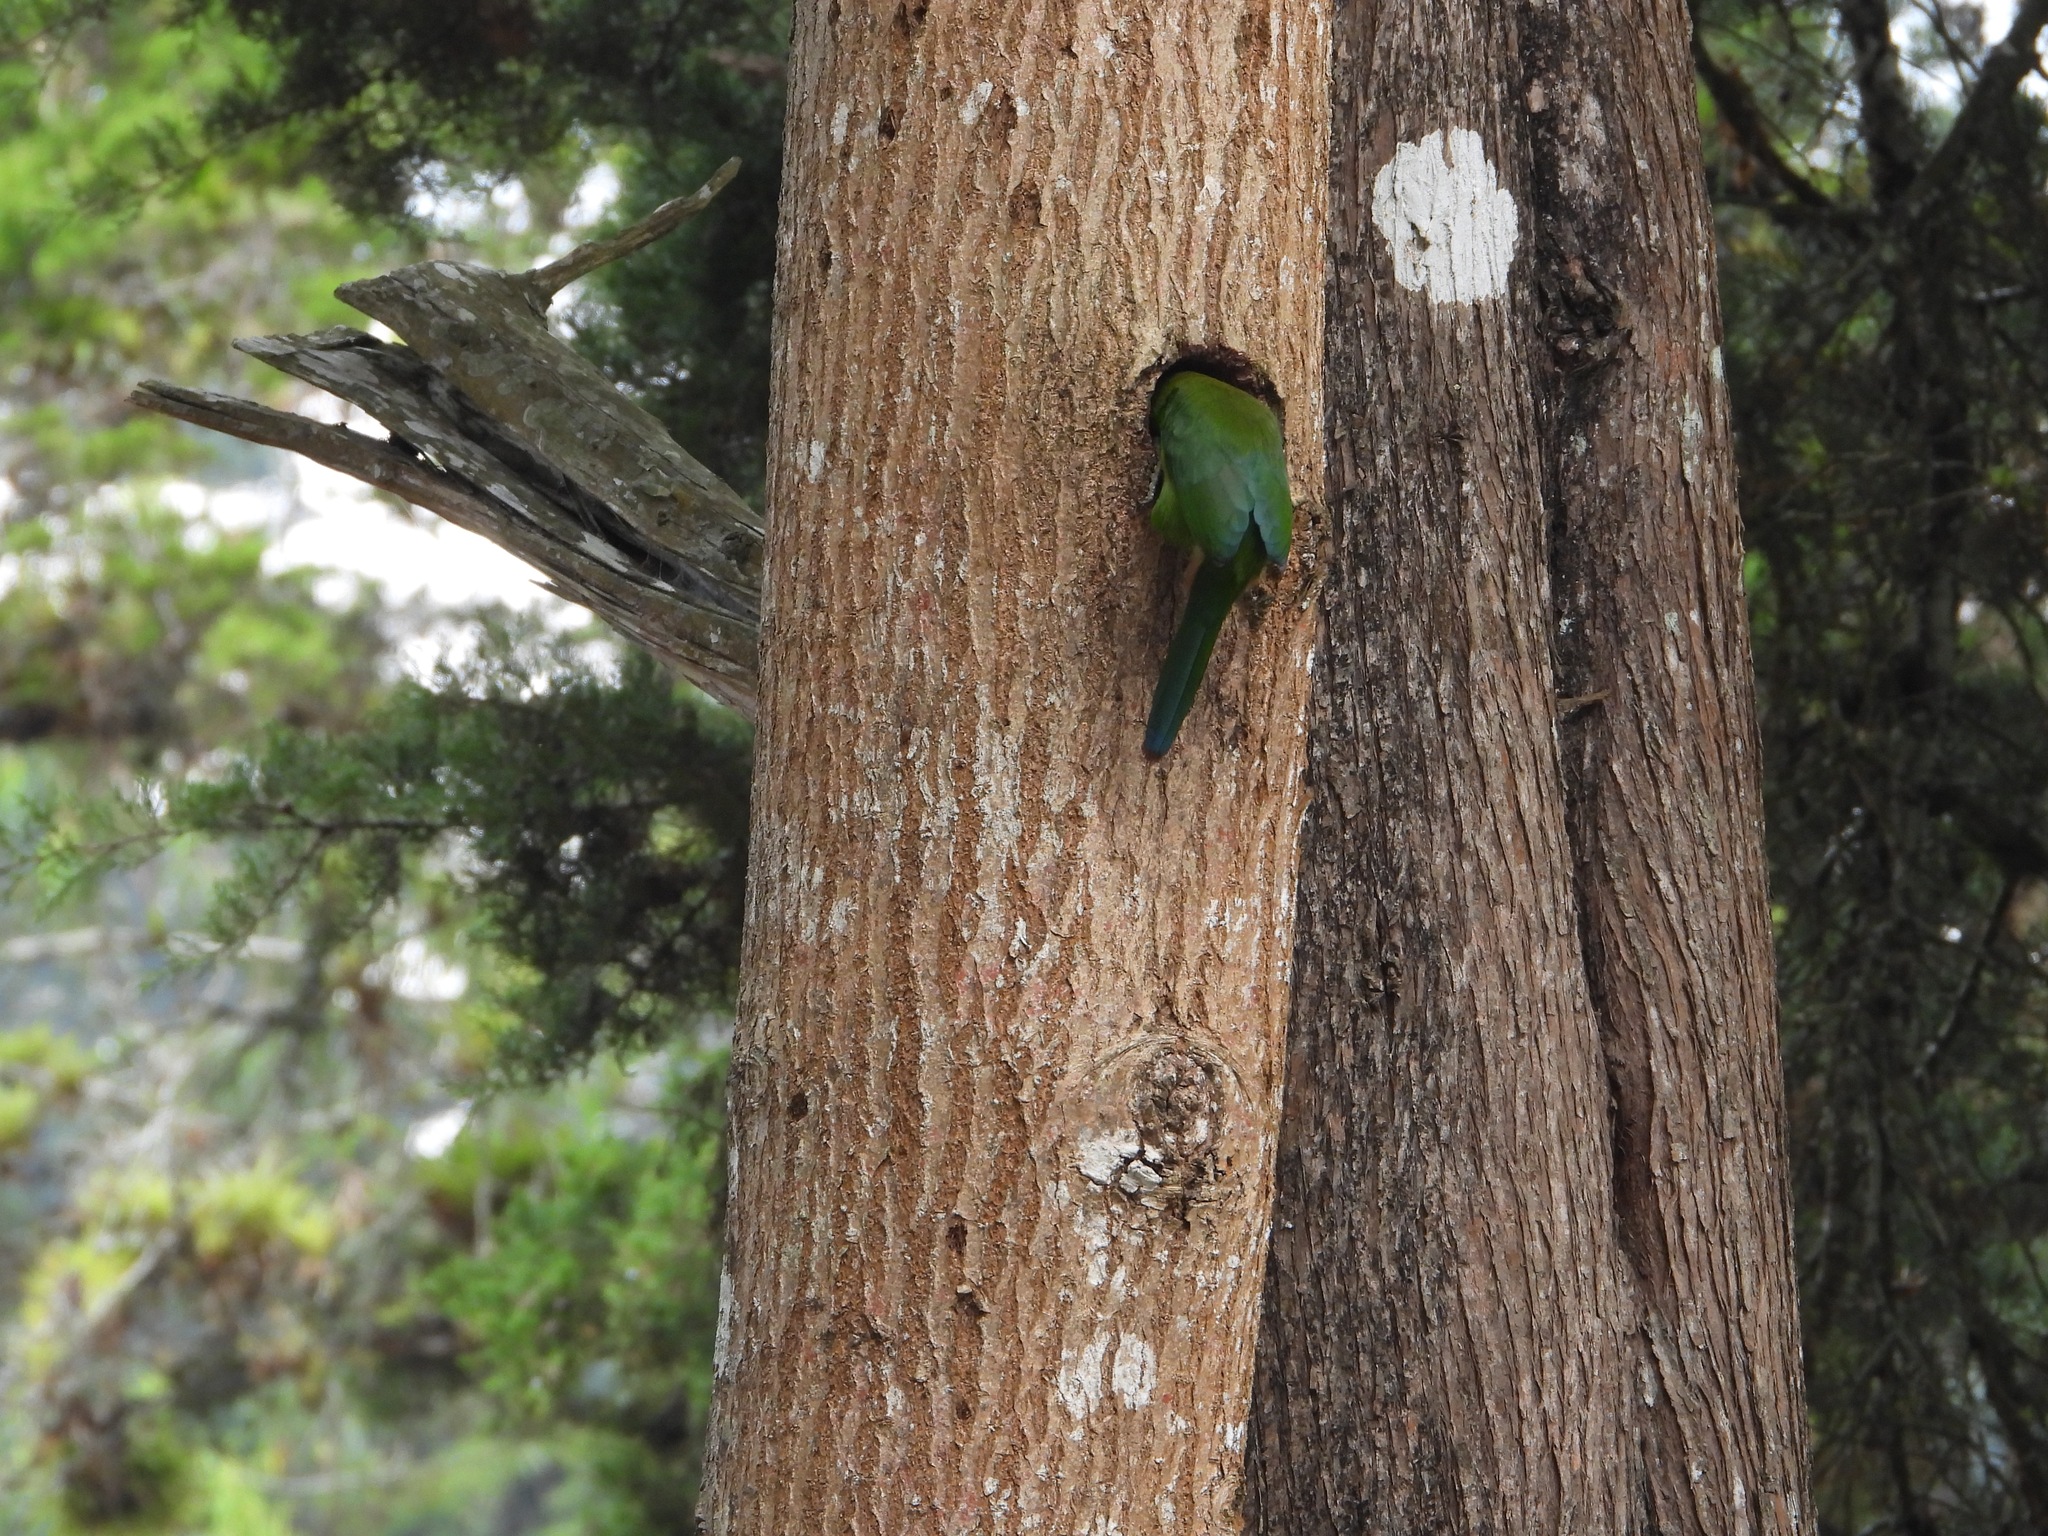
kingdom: Animalia
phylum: Chordata
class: Aves
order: Piciformes
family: Ramphastidae
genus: Aulacorhynchus
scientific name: Aulacorhynchus prasinus
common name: Emerald toucanet
